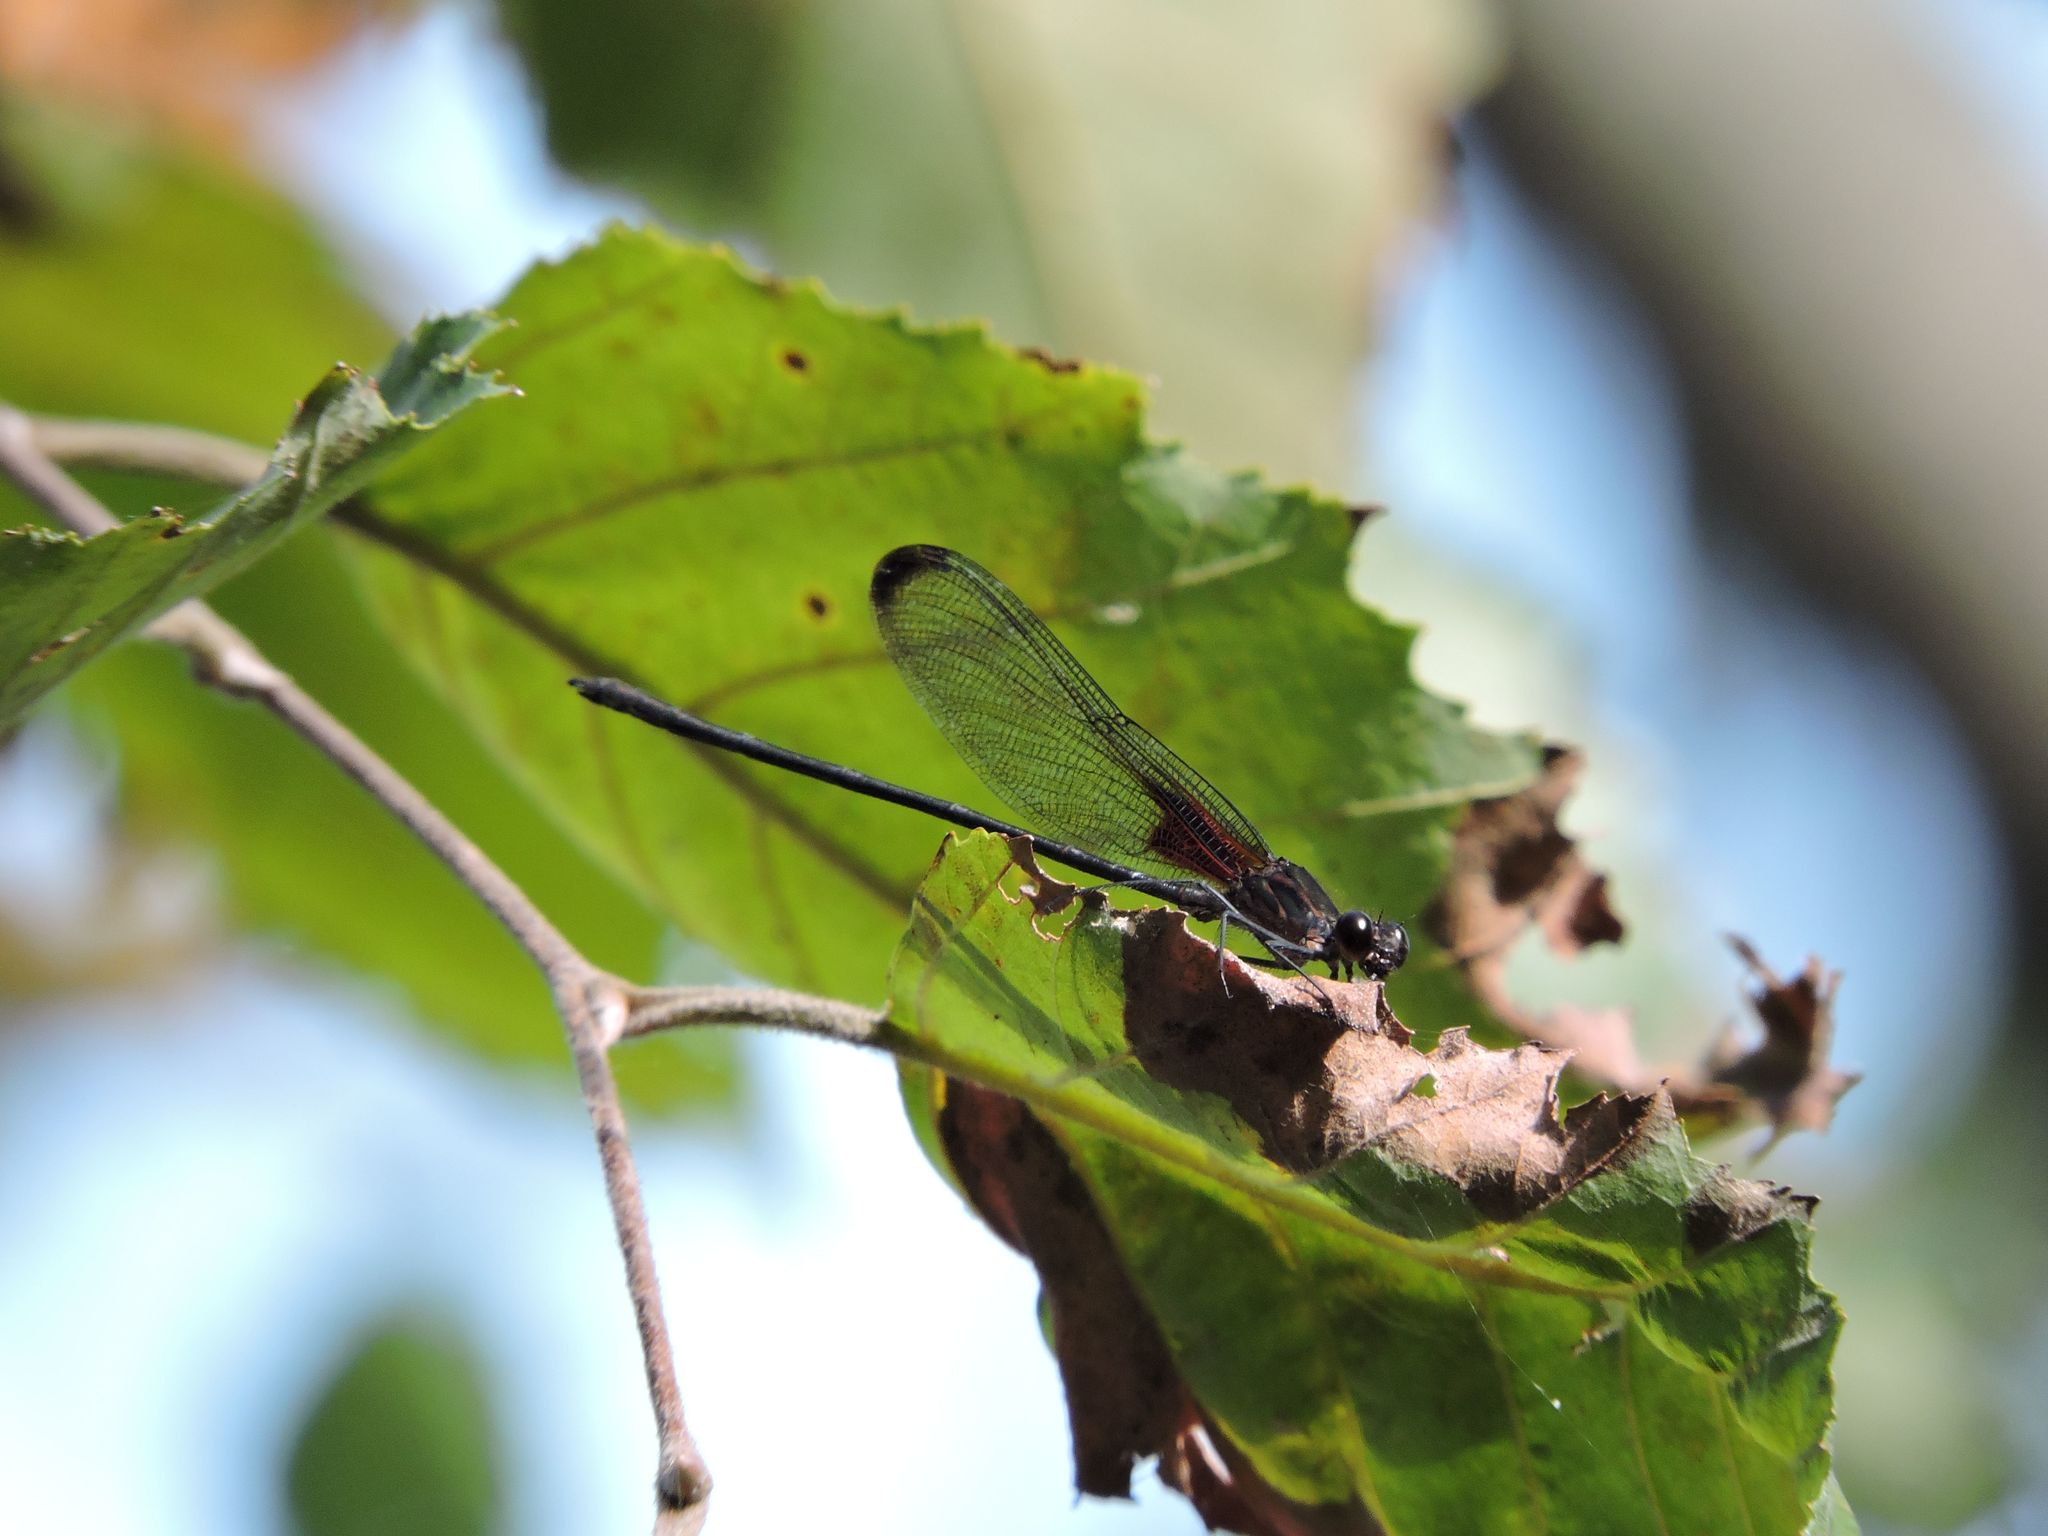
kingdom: Animalia
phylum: Arthropoda
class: Insecta
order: Odonata
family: Calopterygidae
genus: Hetaerina
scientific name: Hetaerina titia
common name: Smoky rubyspot
